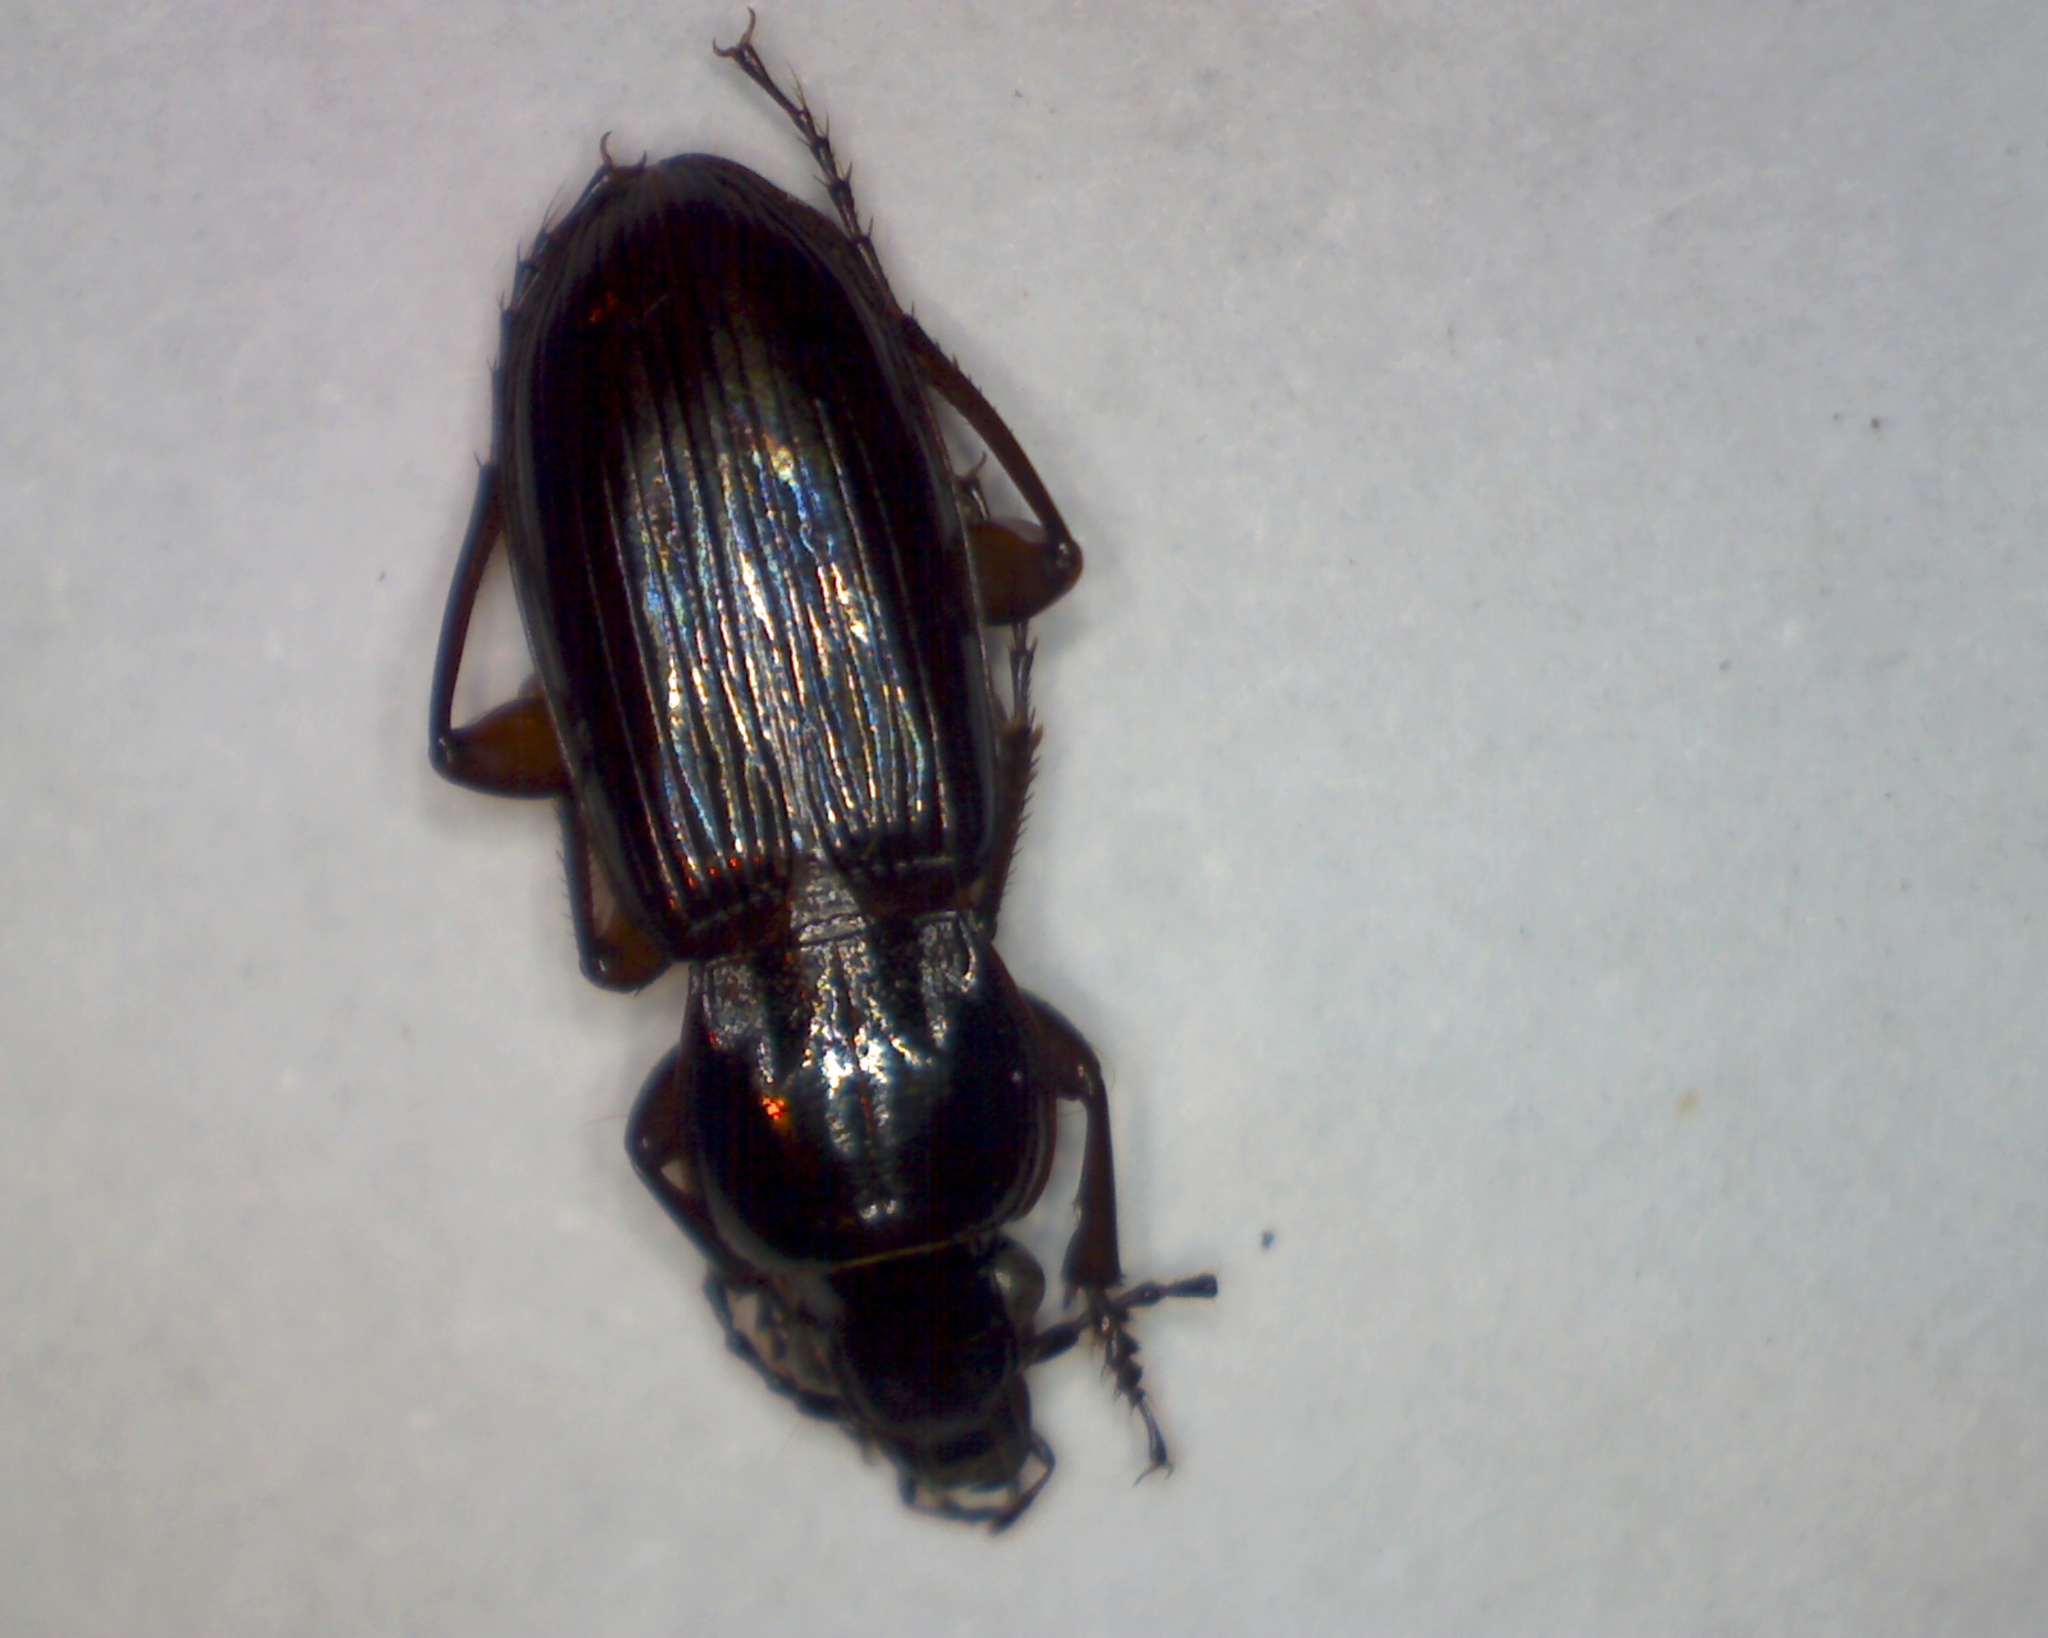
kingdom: Animalia
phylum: Arthropoda
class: Insecta
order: Coleoptera
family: Carabidae
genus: Pterostichus
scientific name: Pterostichus anthracinus
